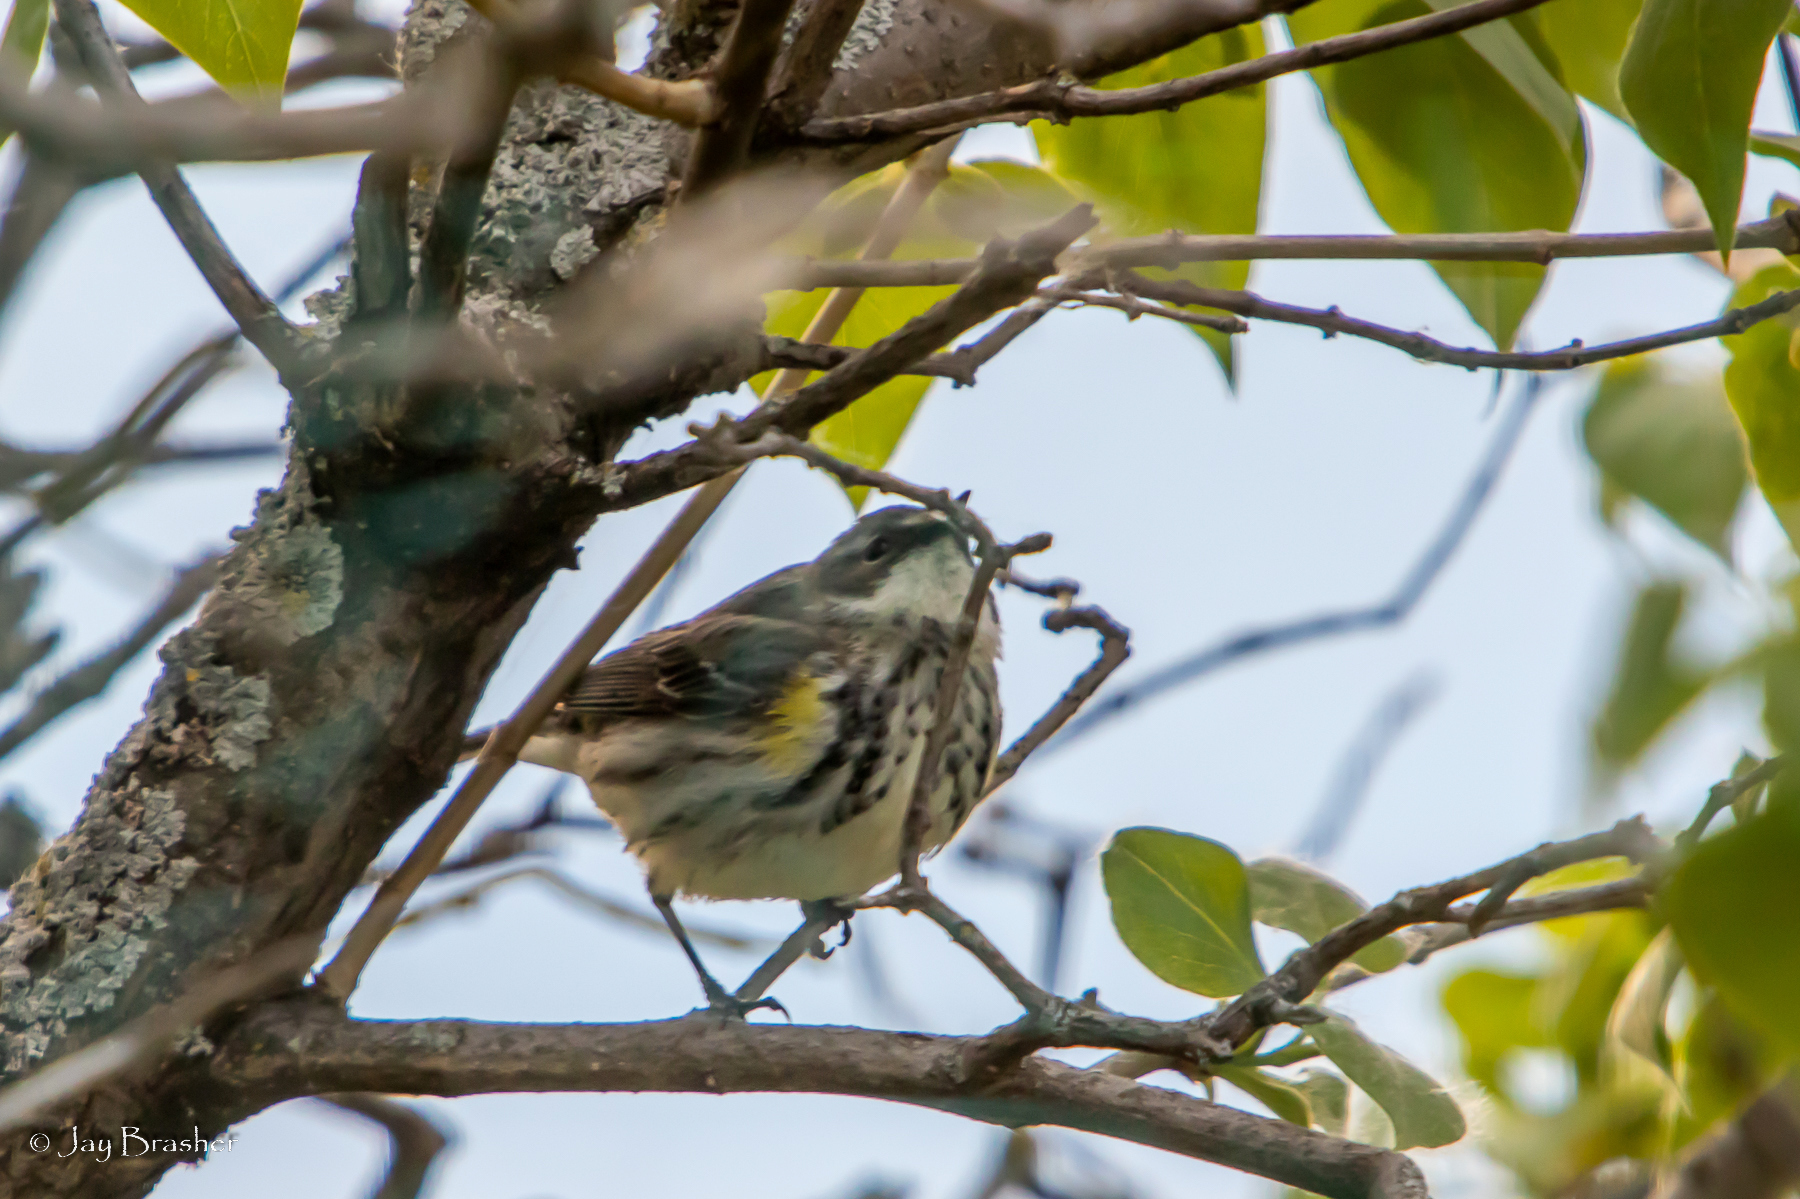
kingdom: Animalia
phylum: Chordata
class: Aves
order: Passeriformes
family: Parulidae
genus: Setophaga
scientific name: Setophaga coronata
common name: Myrtle warbler
